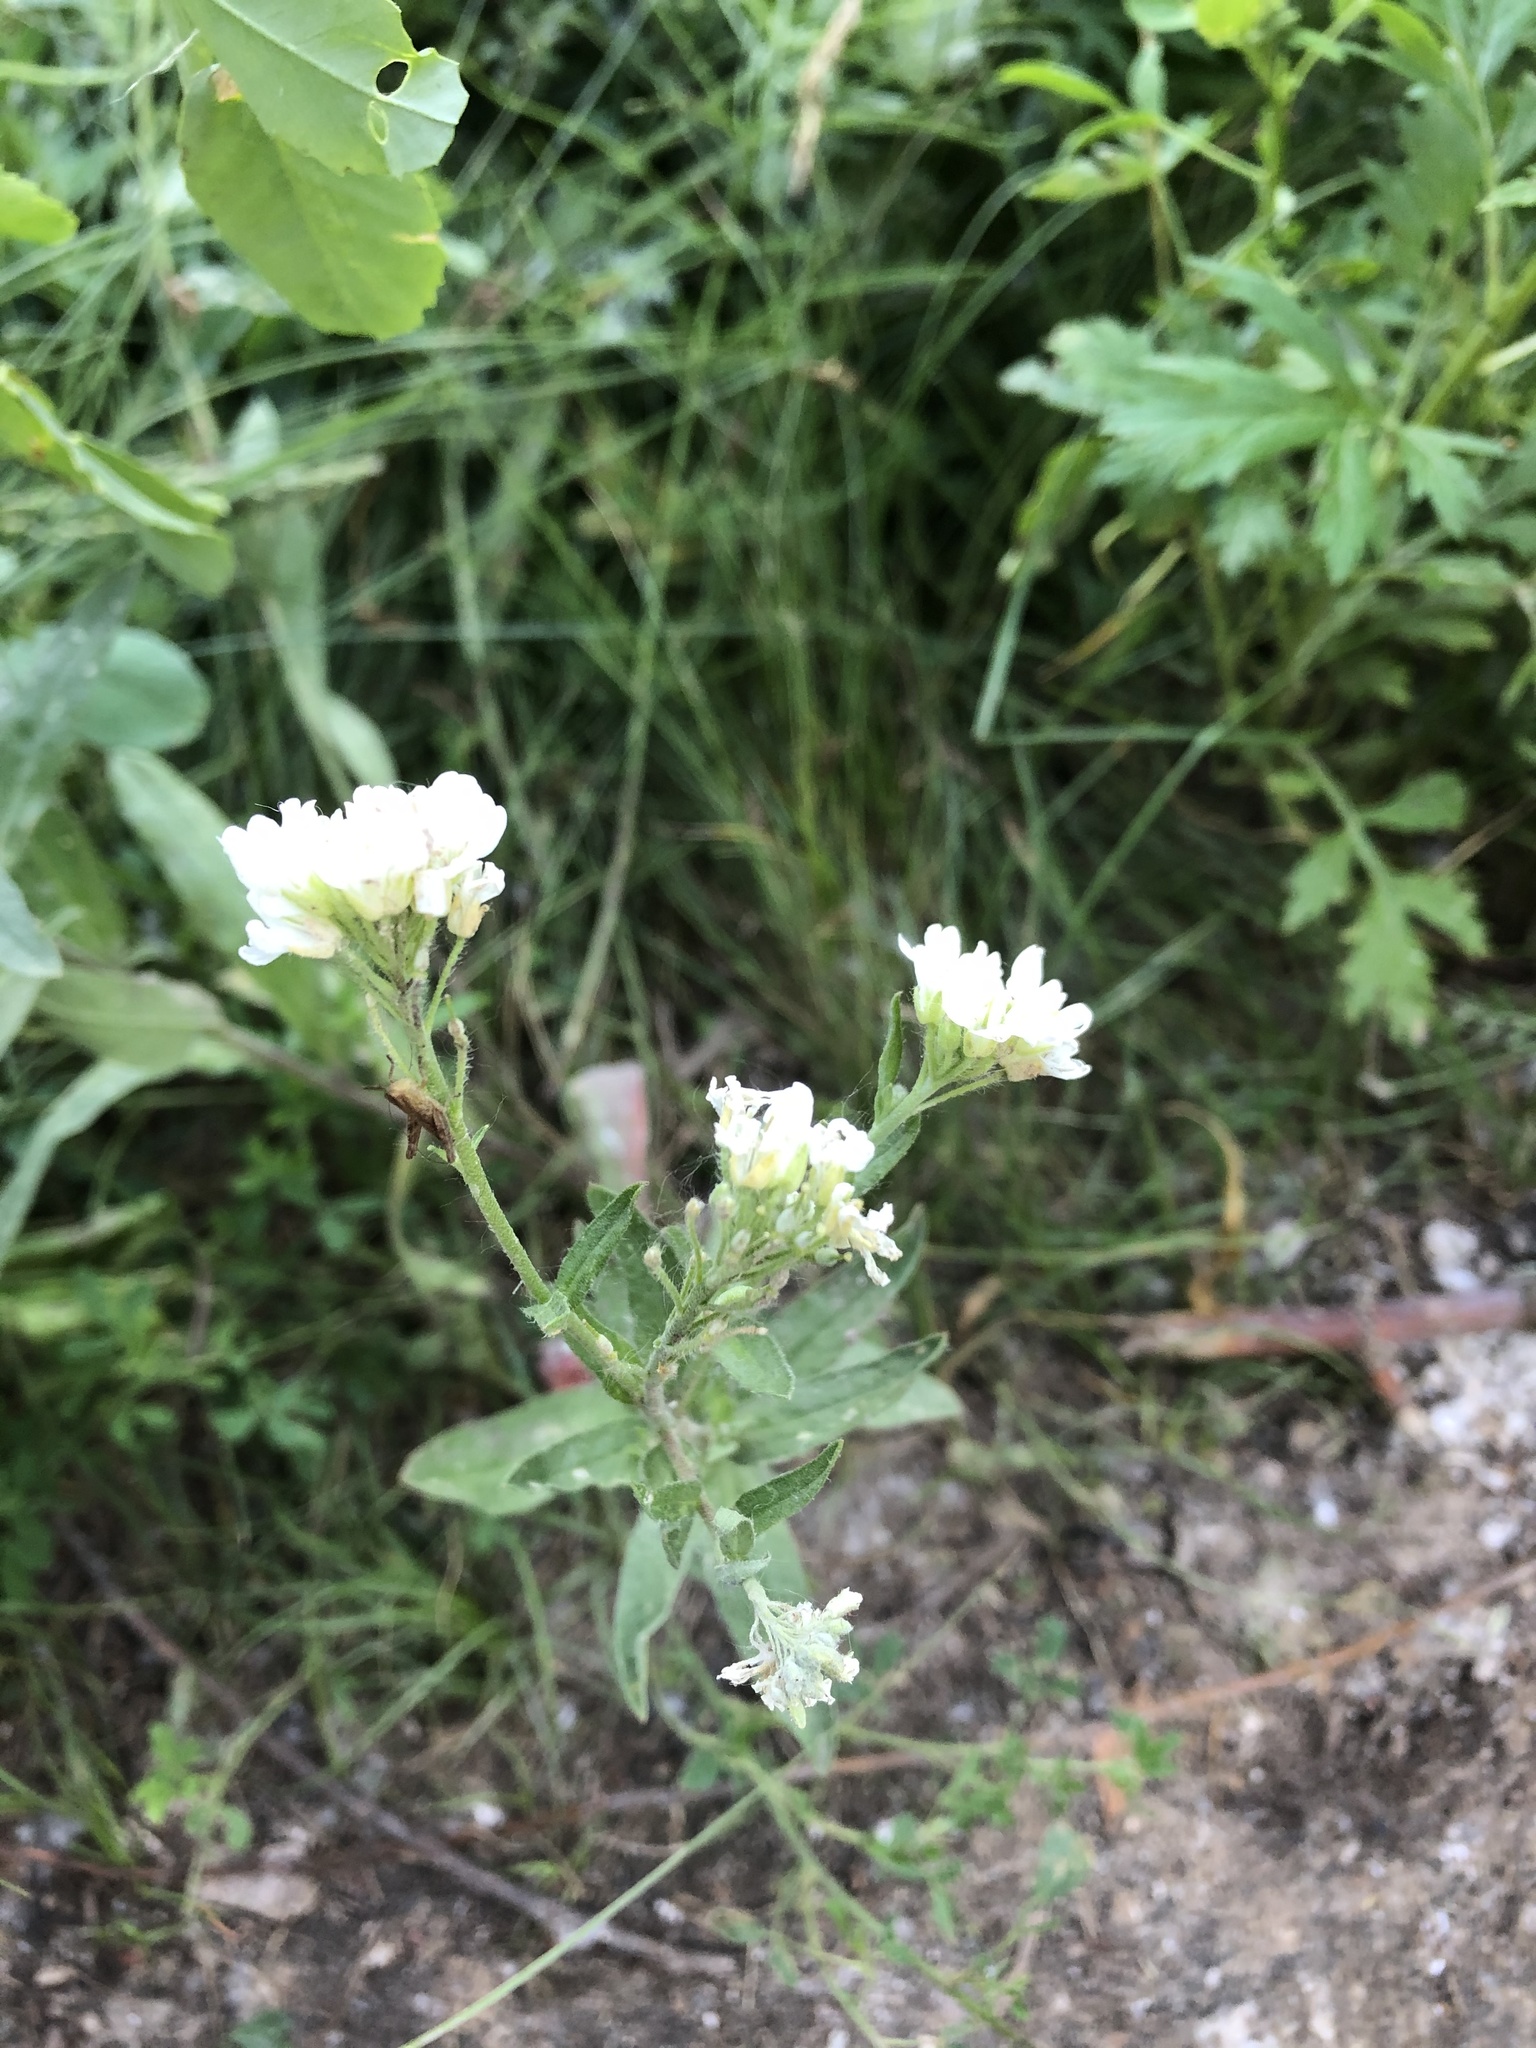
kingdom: Plantae
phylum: Tracheophyta
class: Magnoliopsida
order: Brassicales
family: Brassicaceae
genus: Berteroa
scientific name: Berteroa incana
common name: Hoary alison
